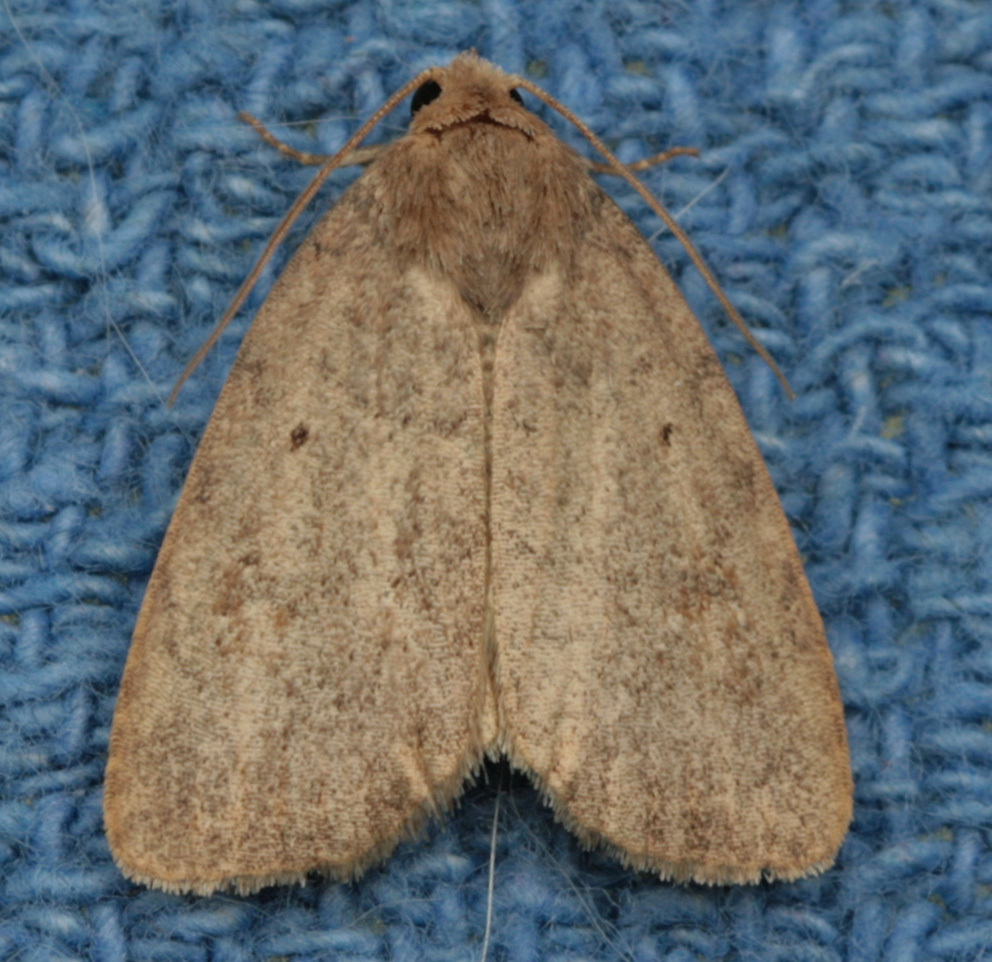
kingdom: Animalia
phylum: Arthropoda
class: Insecta
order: Lepidoptera
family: Noctuidae
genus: Athetis
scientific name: Athetis tarda
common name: Slowpoke moth
